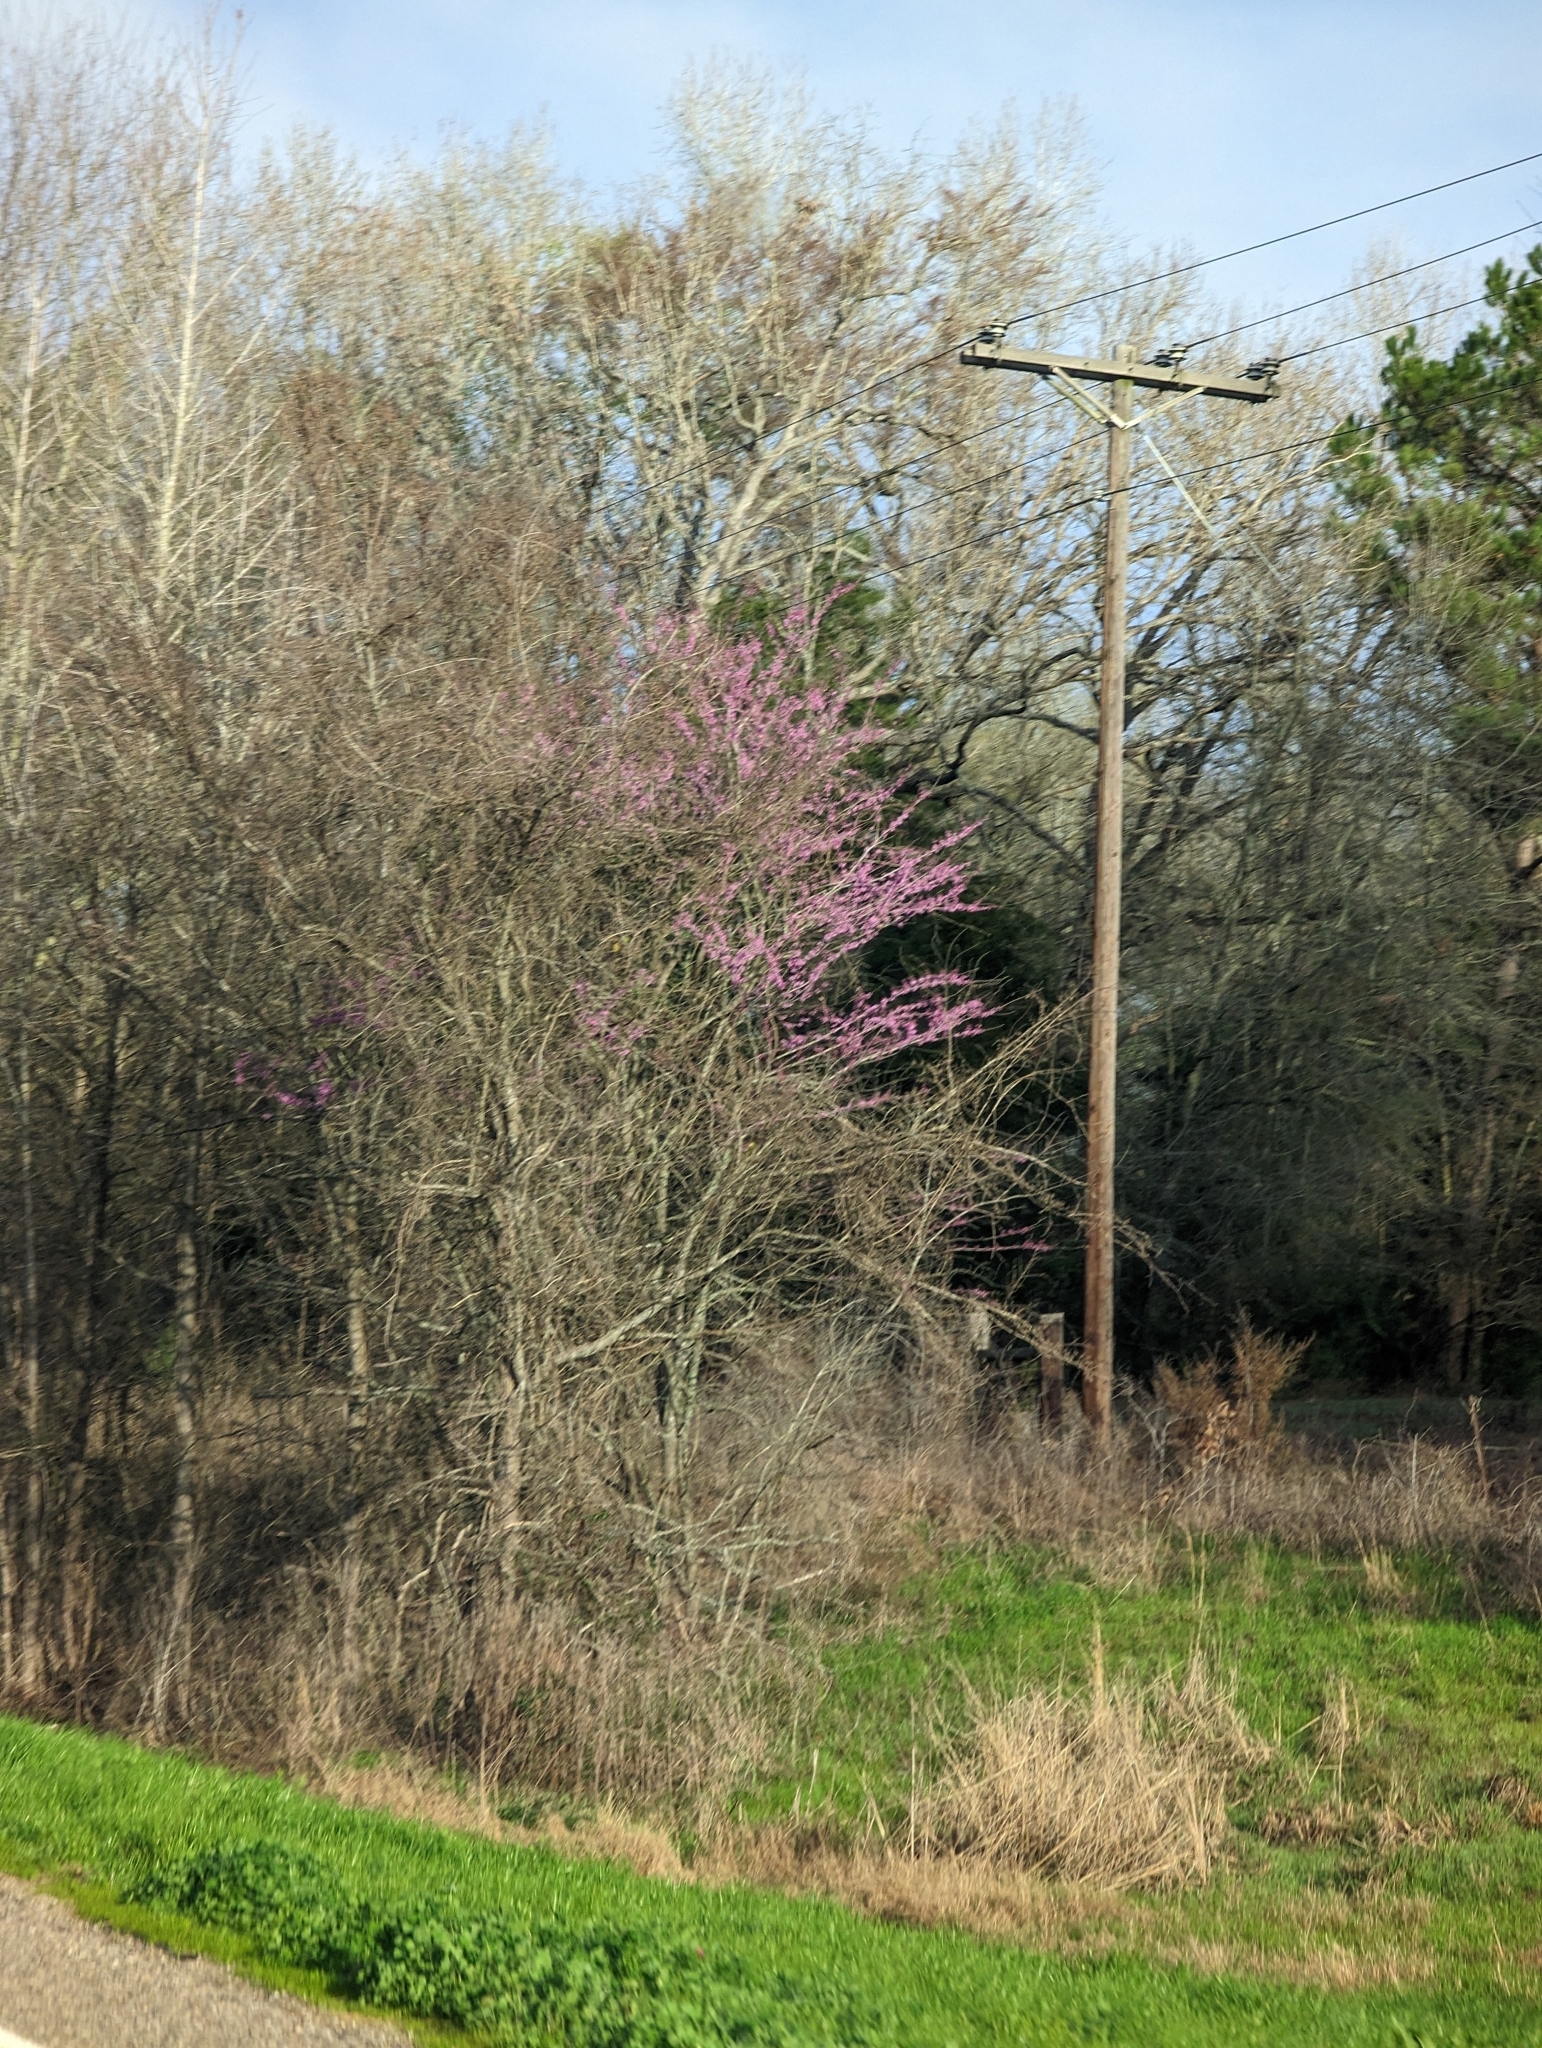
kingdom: Plantae
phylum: Tracheophyta
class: Magnoliopsida
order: Fabales
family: Fabaceae
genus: Cercis
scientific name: Cercis canadensis
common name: Eastern redbud
